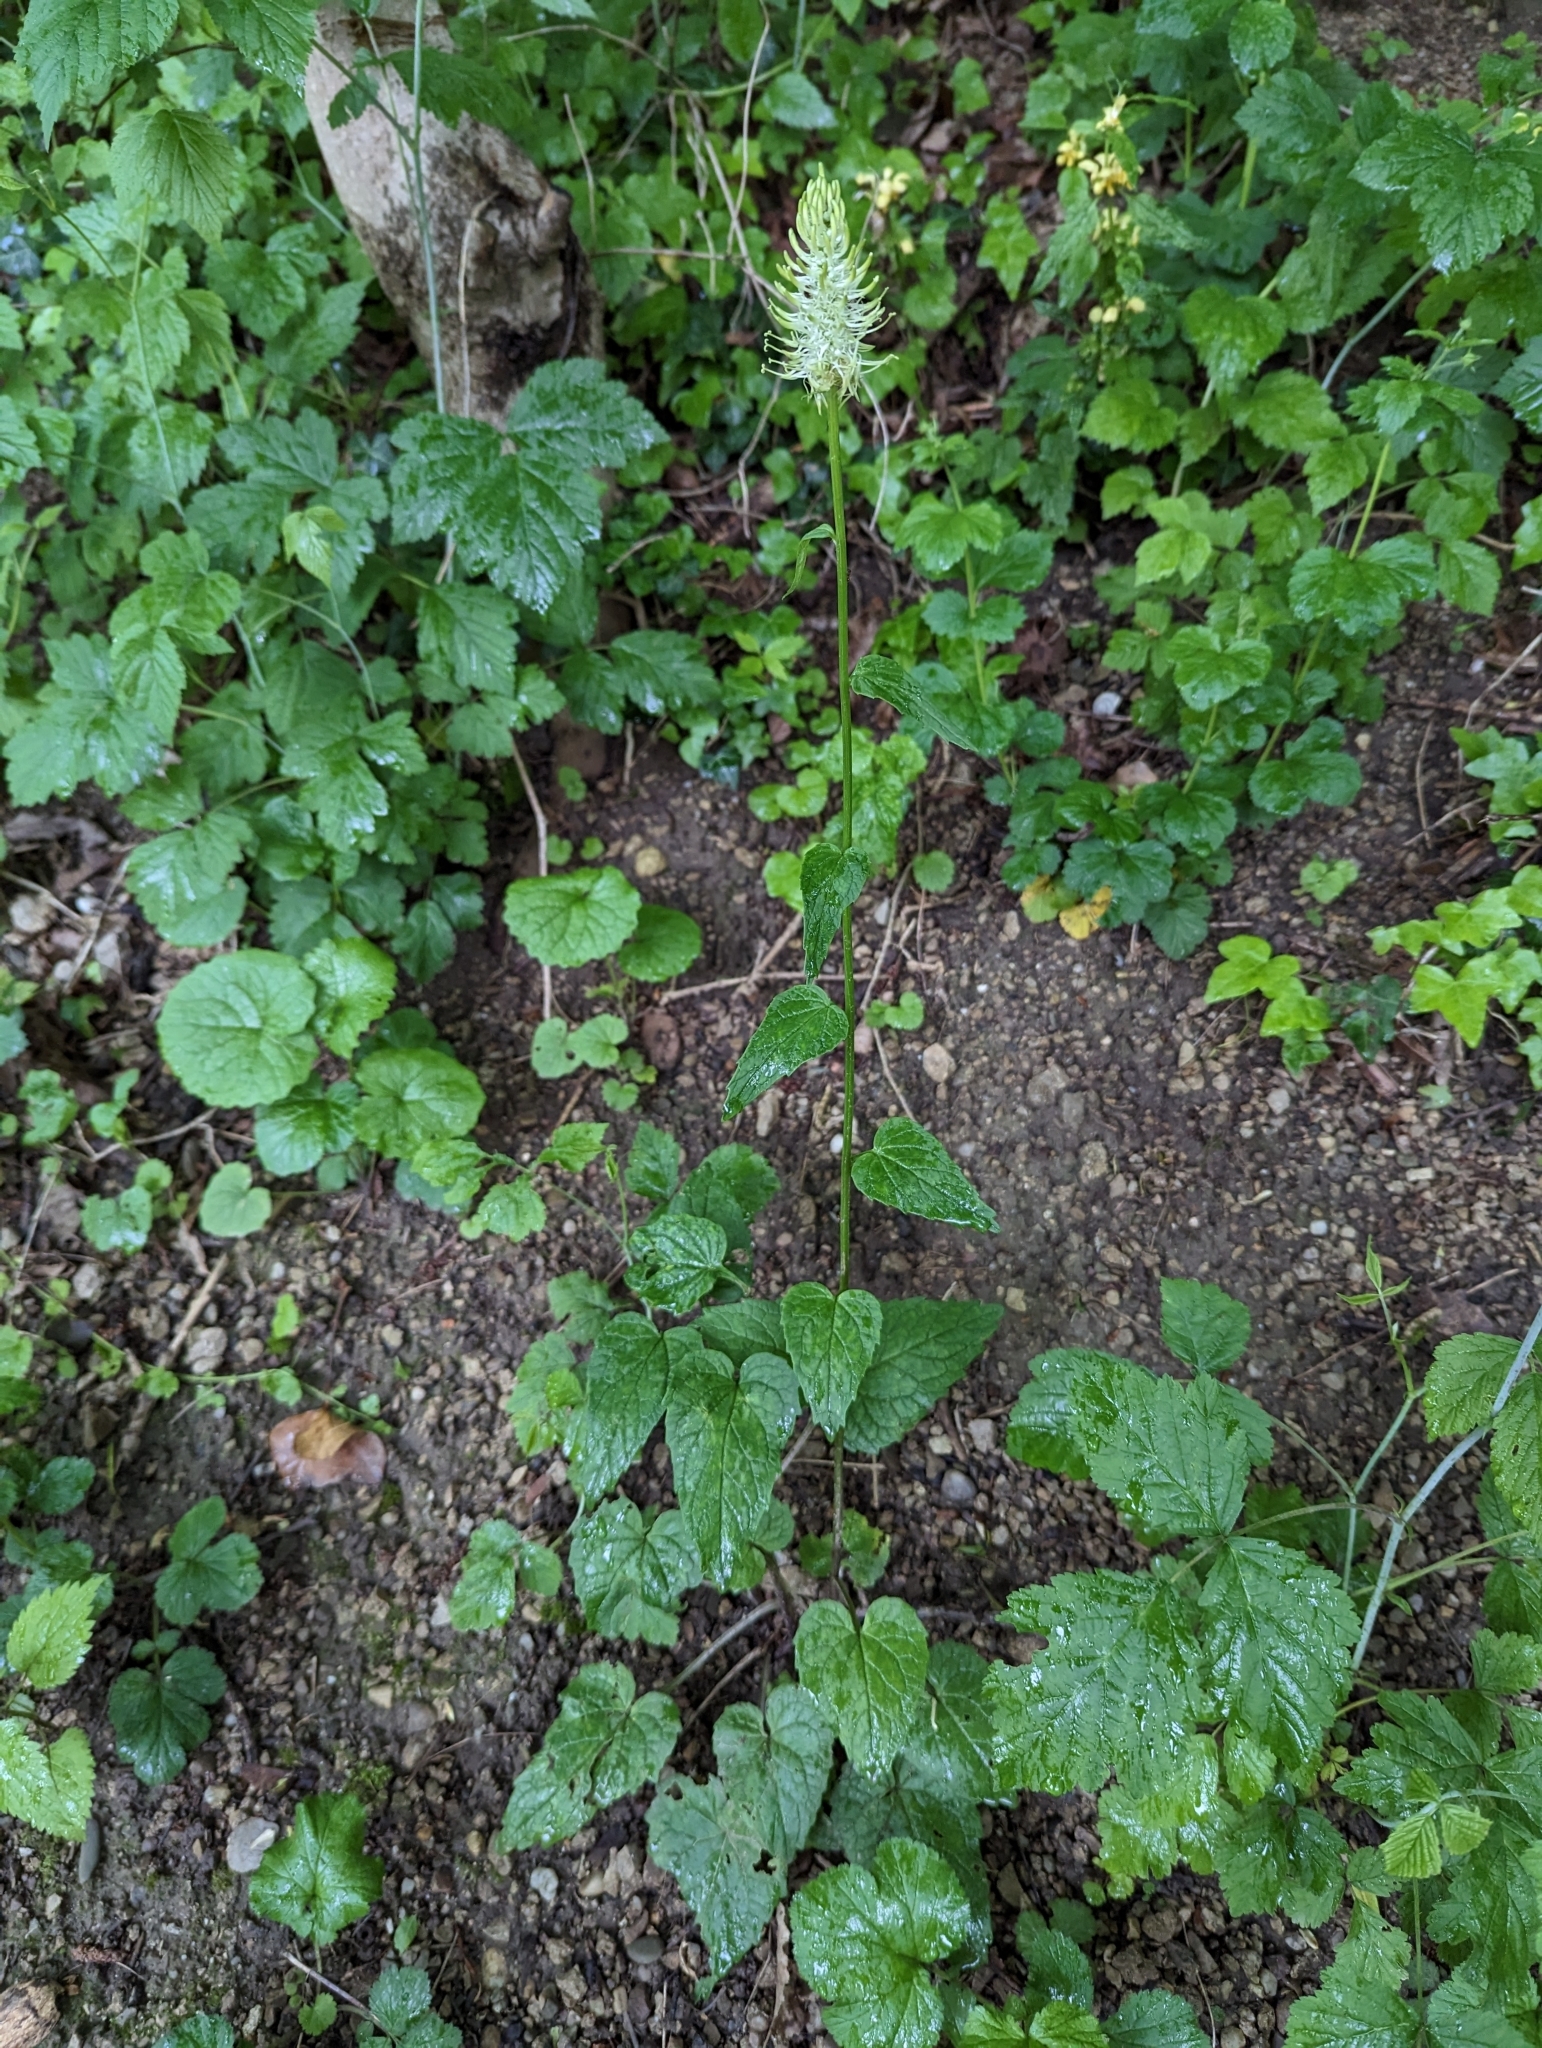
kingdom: Plantae
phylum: Tracheophyta
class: Magnoliopsida
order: Asterales
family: Campanulaceae
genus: Phyteuma
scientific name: Phyteuma spicatum
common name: Spiked rampion
